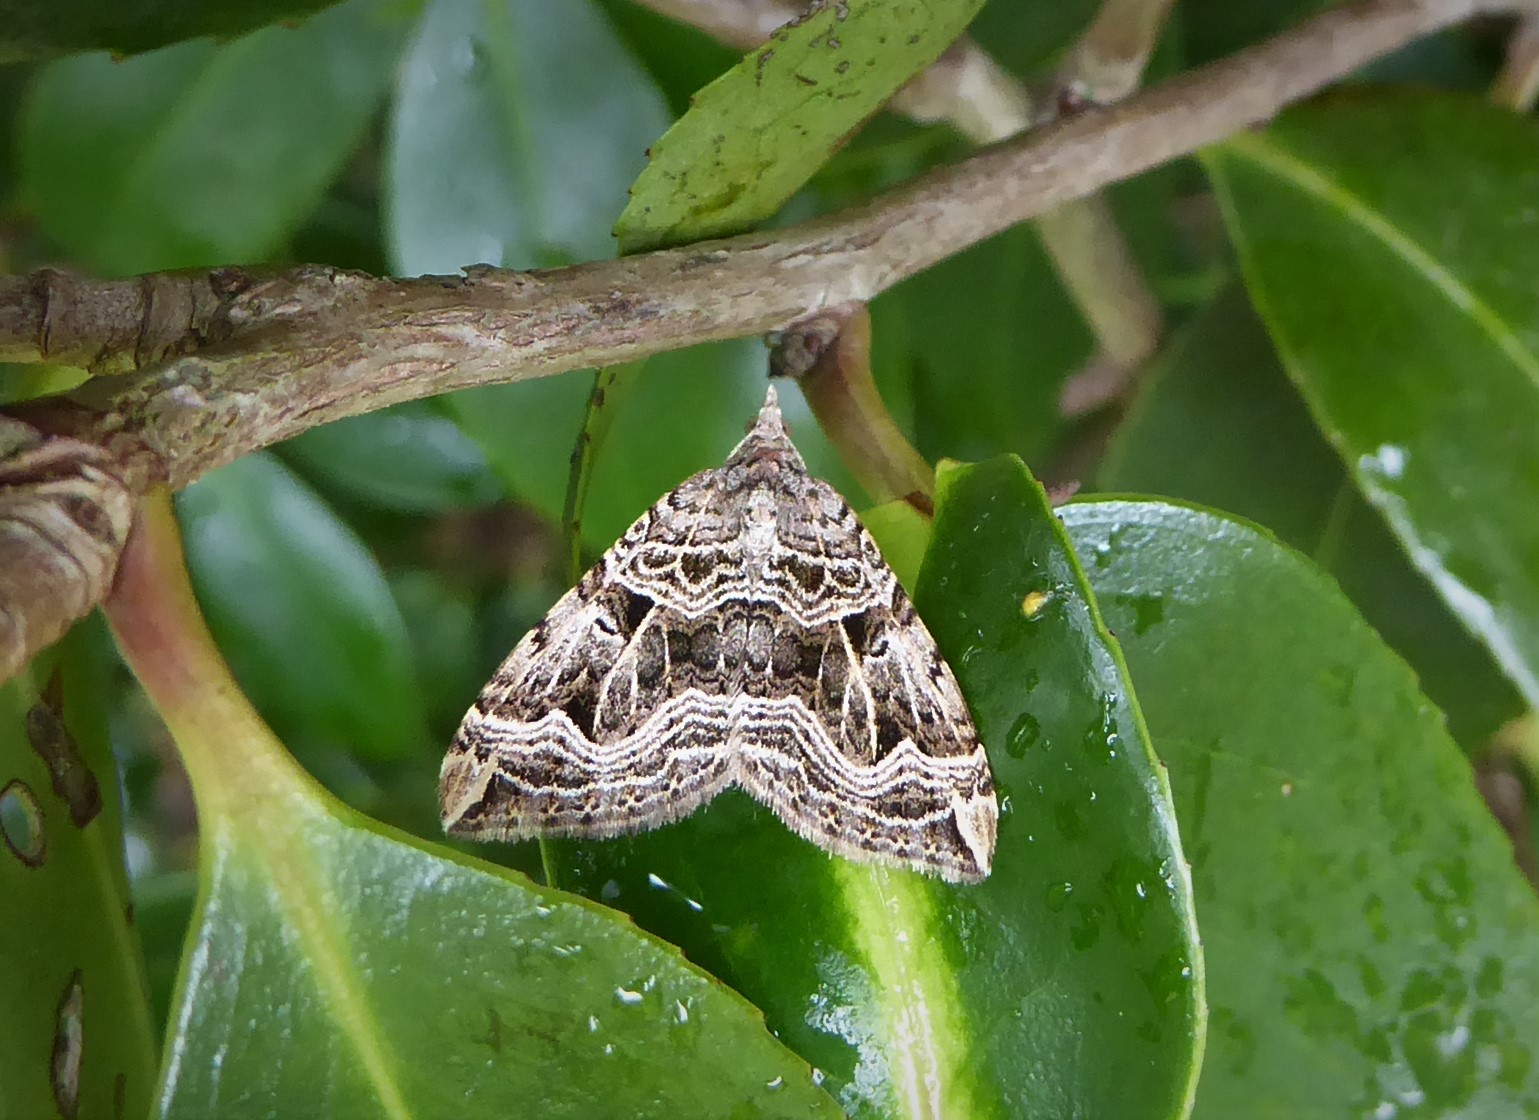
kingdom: Animalia
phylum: Arthropoda
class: Insecta
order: Lepidoptera
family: Geometridae
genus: Xanthorhoe
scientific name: Xanthorhoe semifissata
